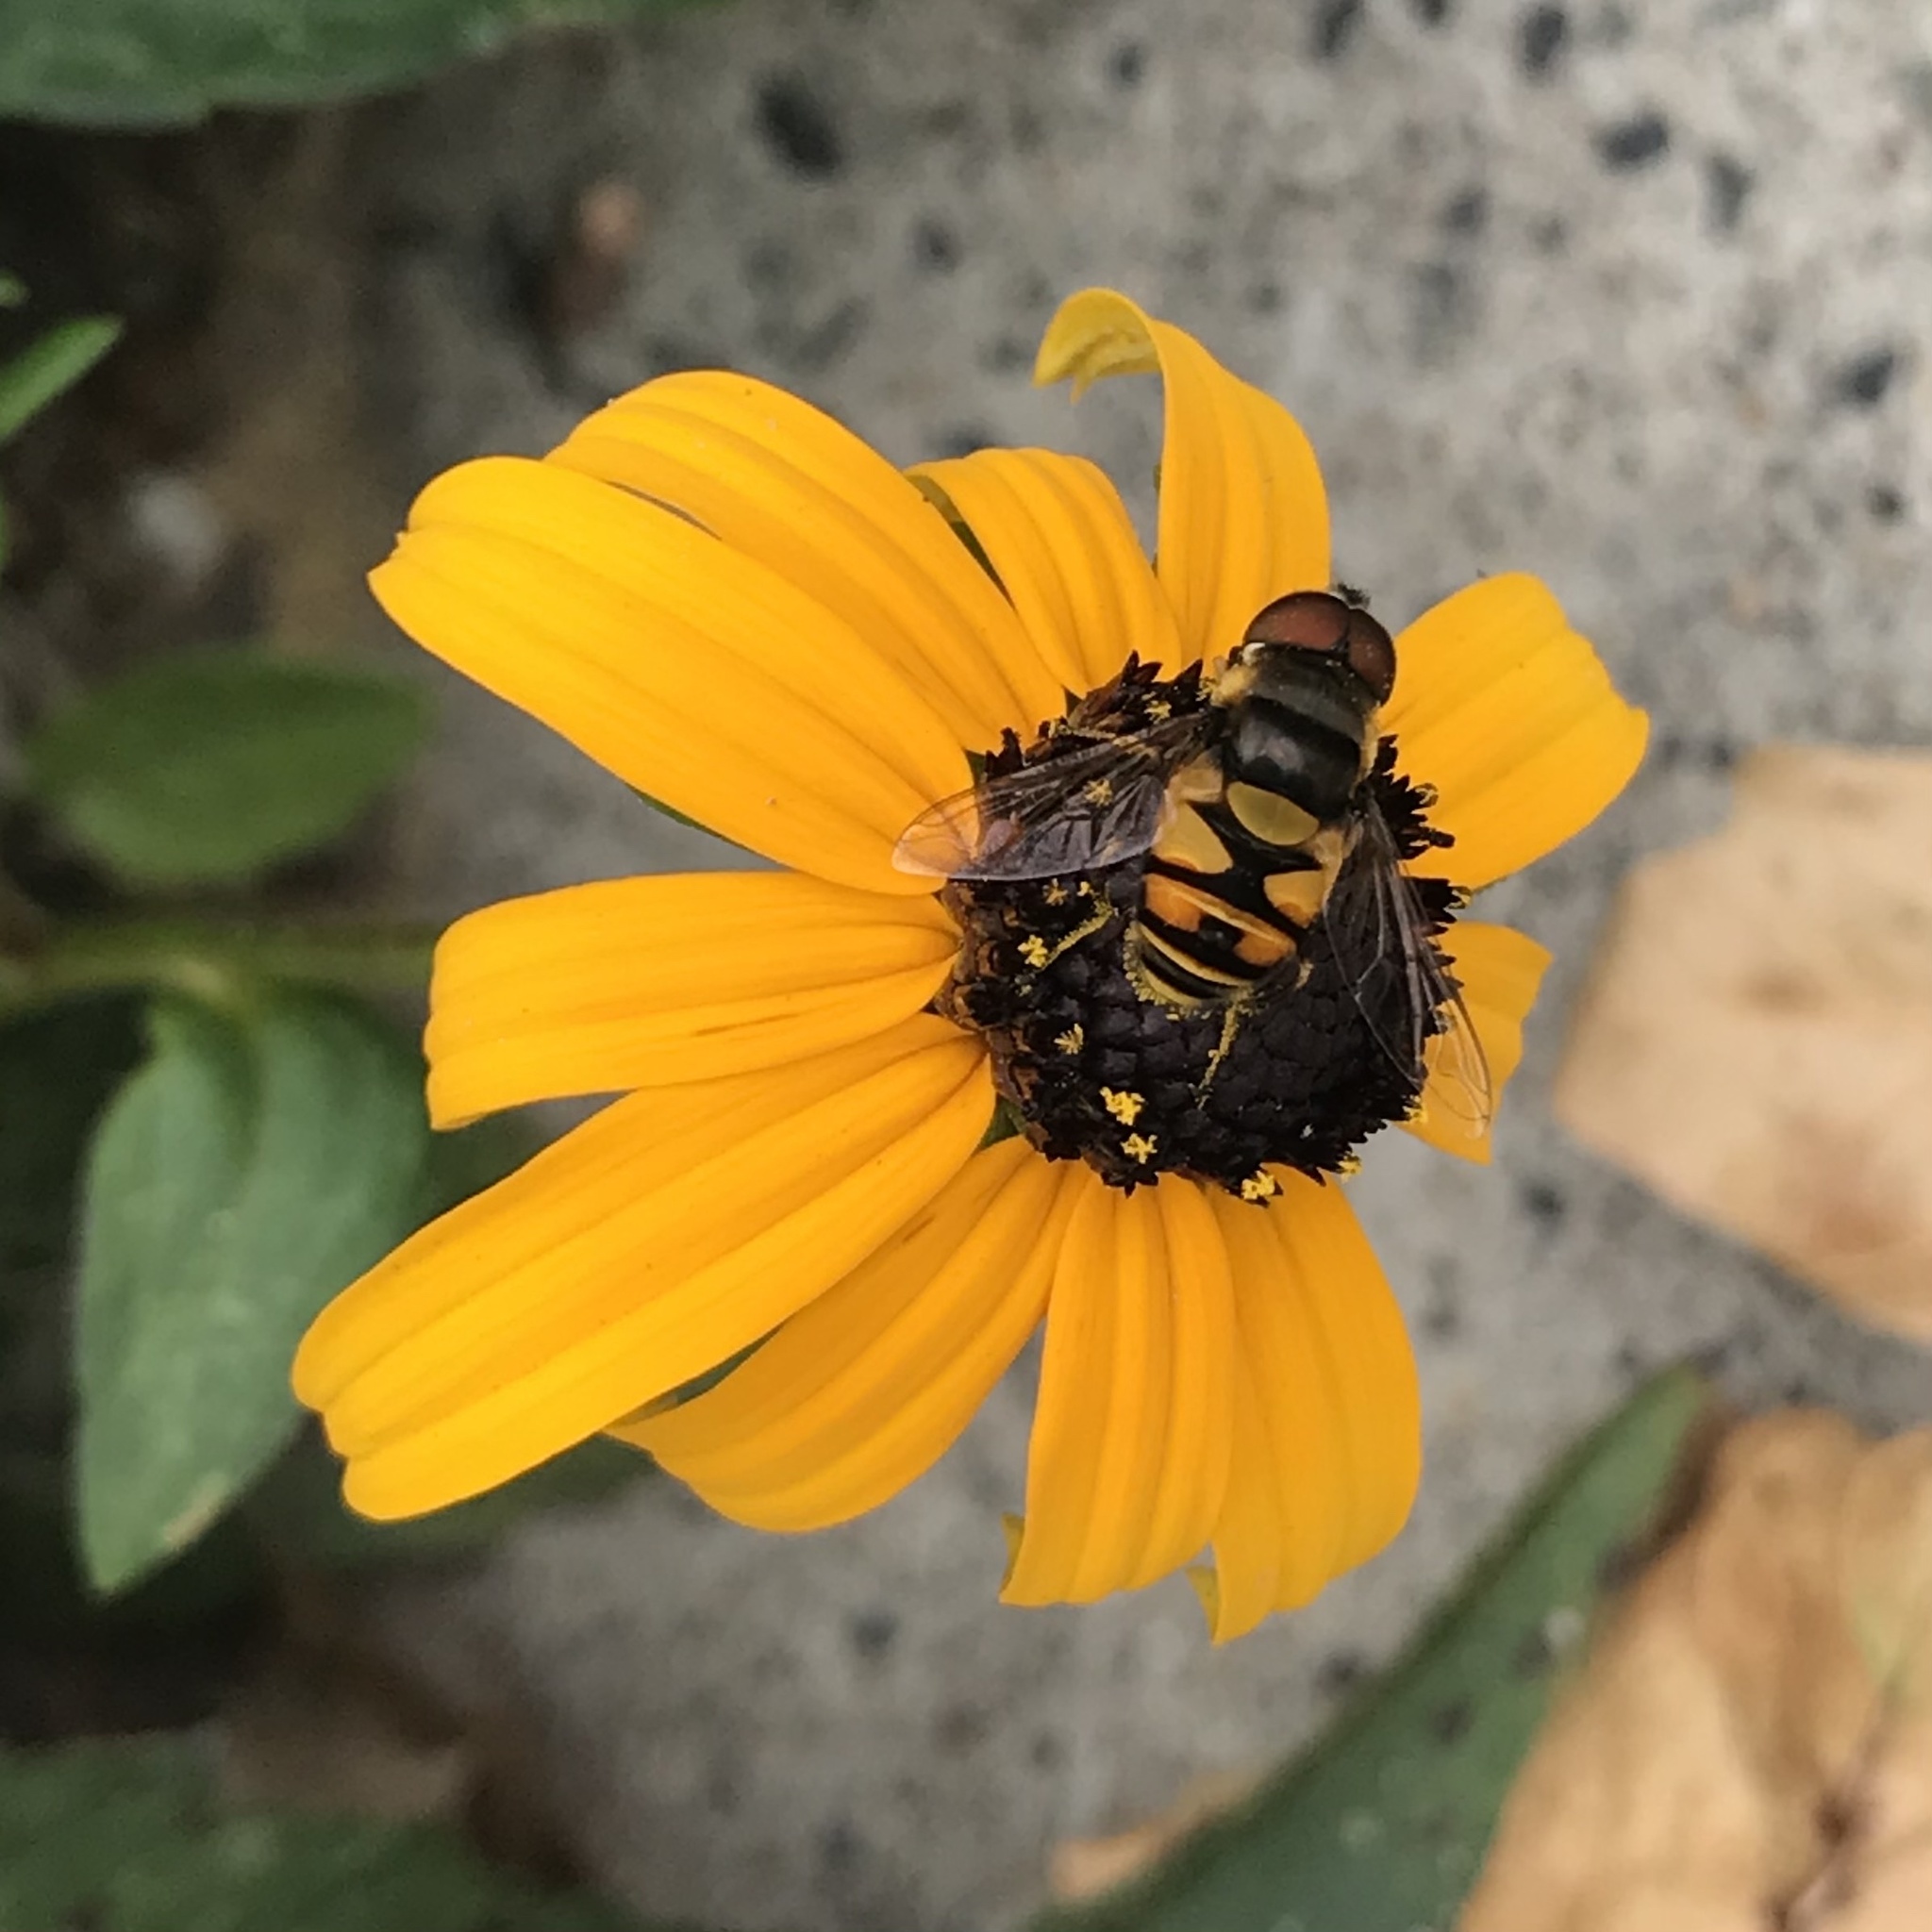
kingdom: Animalia
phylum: Arthropoda
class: Insecta
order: Diptera
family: Syrphidae
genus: Eristalis
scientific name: Eristalis transversa
